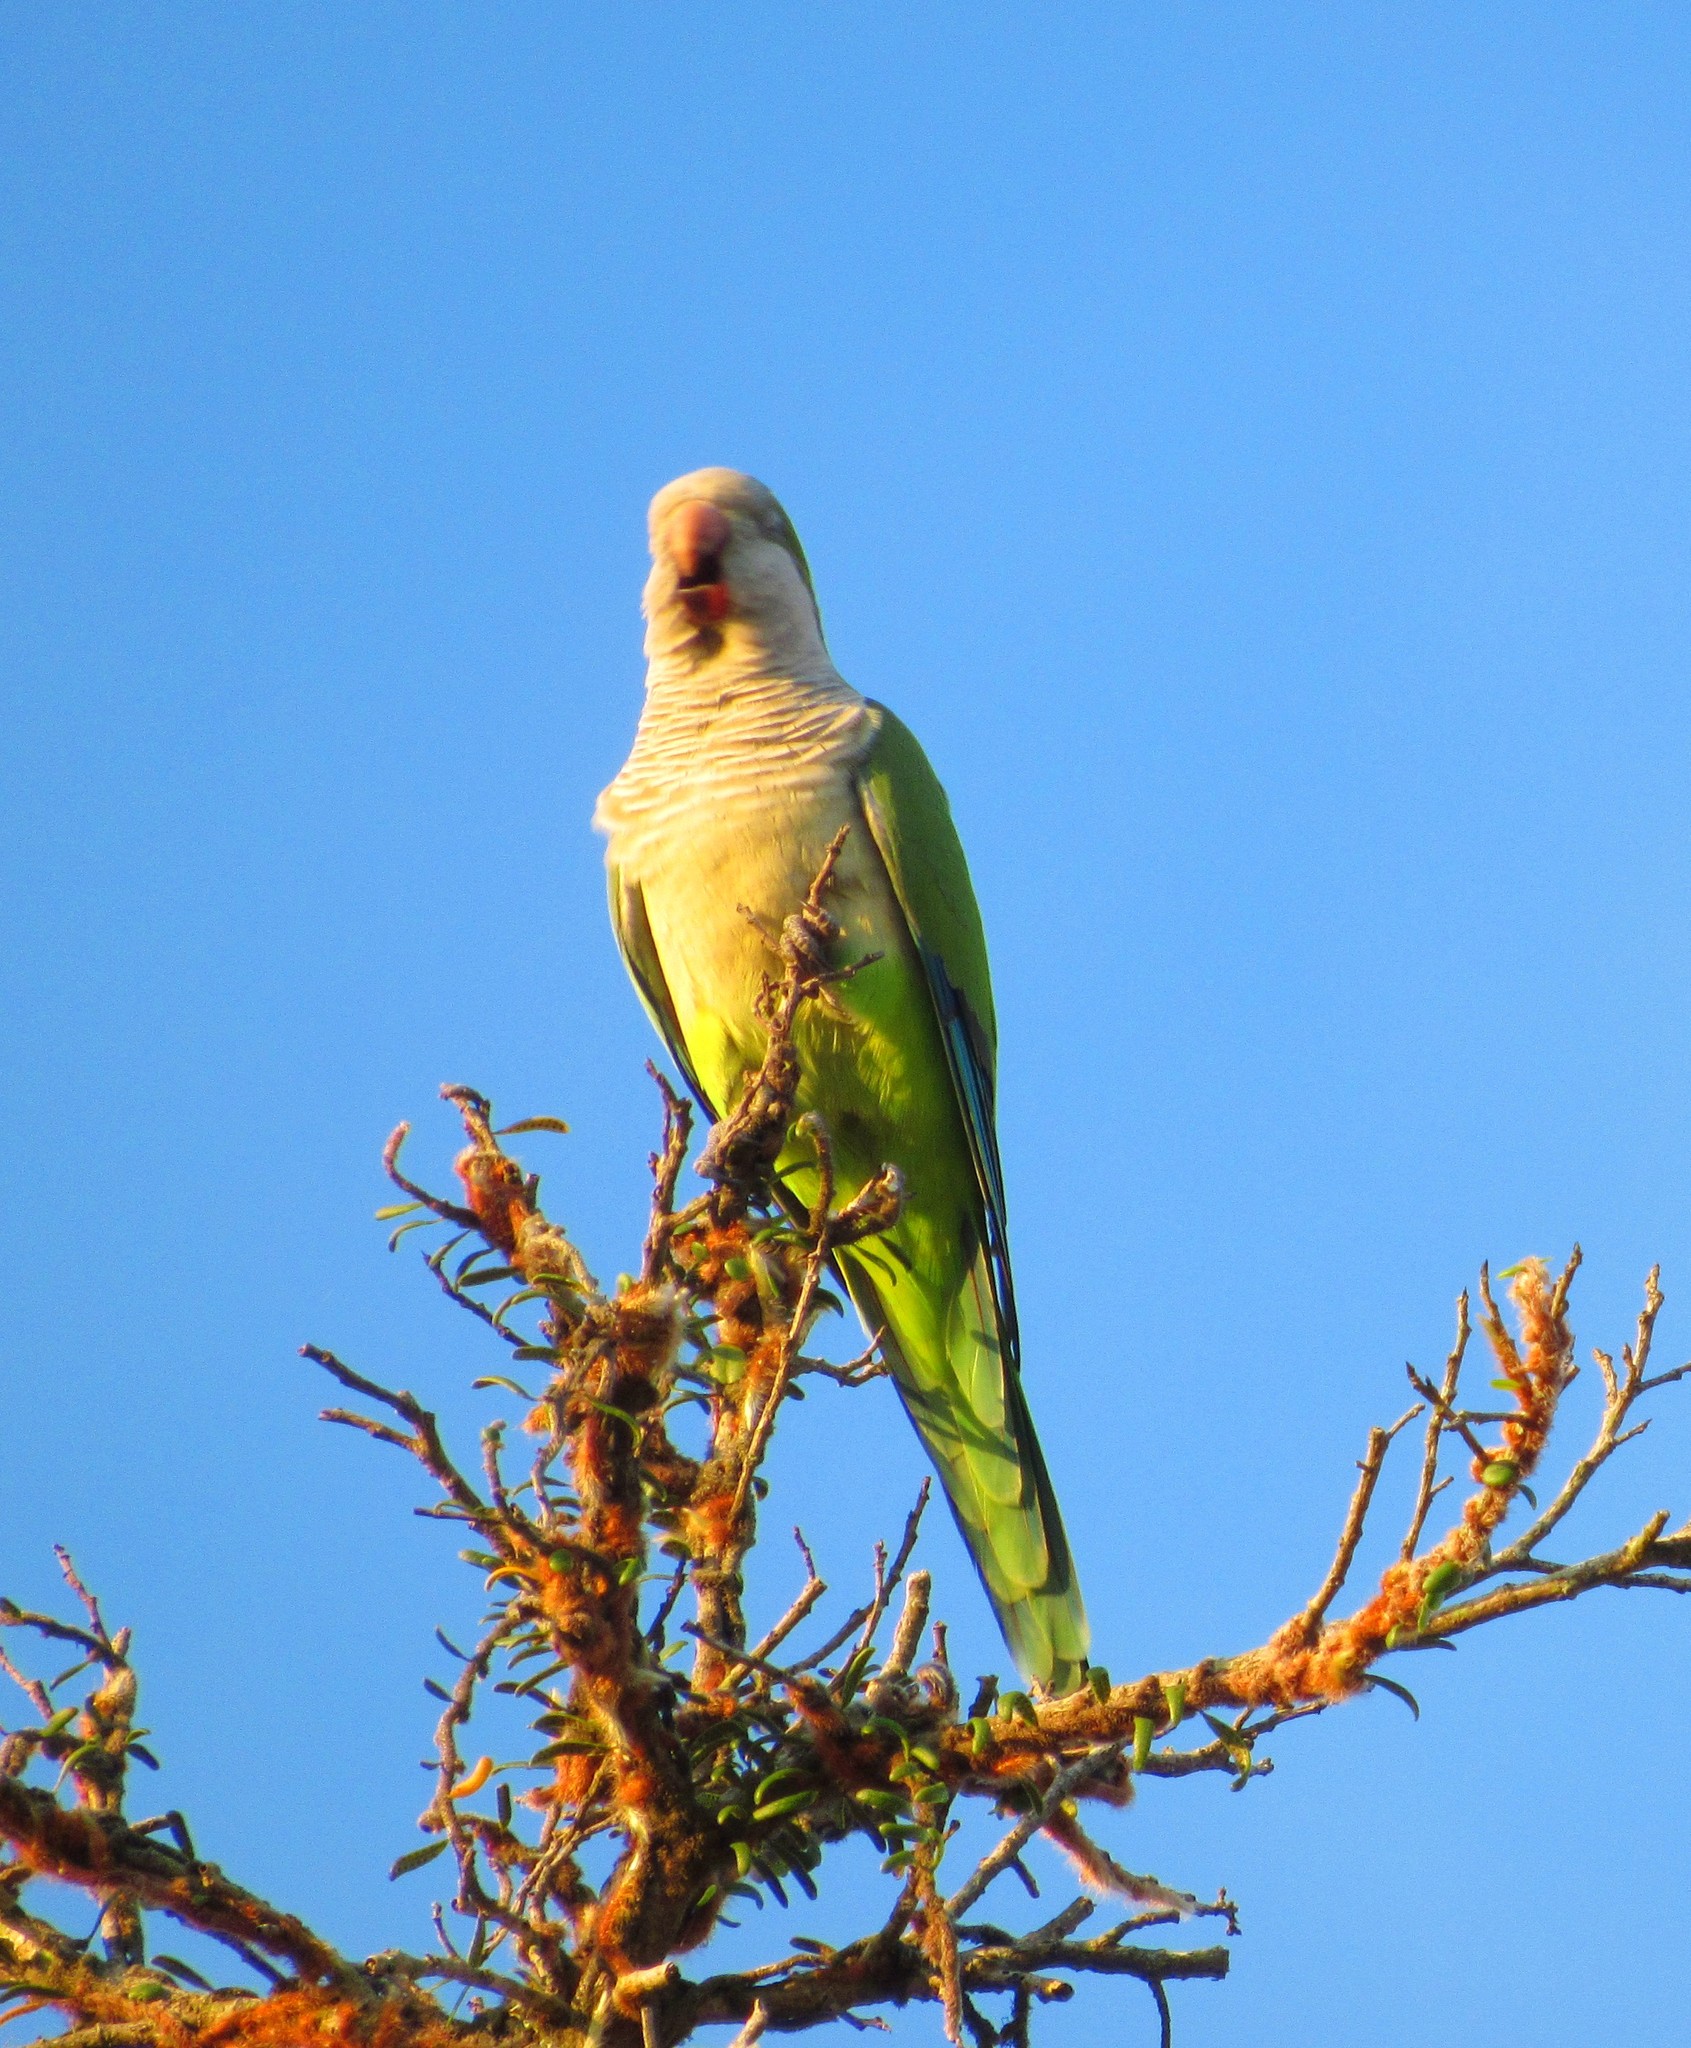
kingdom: Animalia
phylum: Chordata
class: Aves
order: Psittaciformes
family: Psittacidae
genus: Myiopsitta
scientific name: Myiopsitta monachus
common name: Monk parakeet
